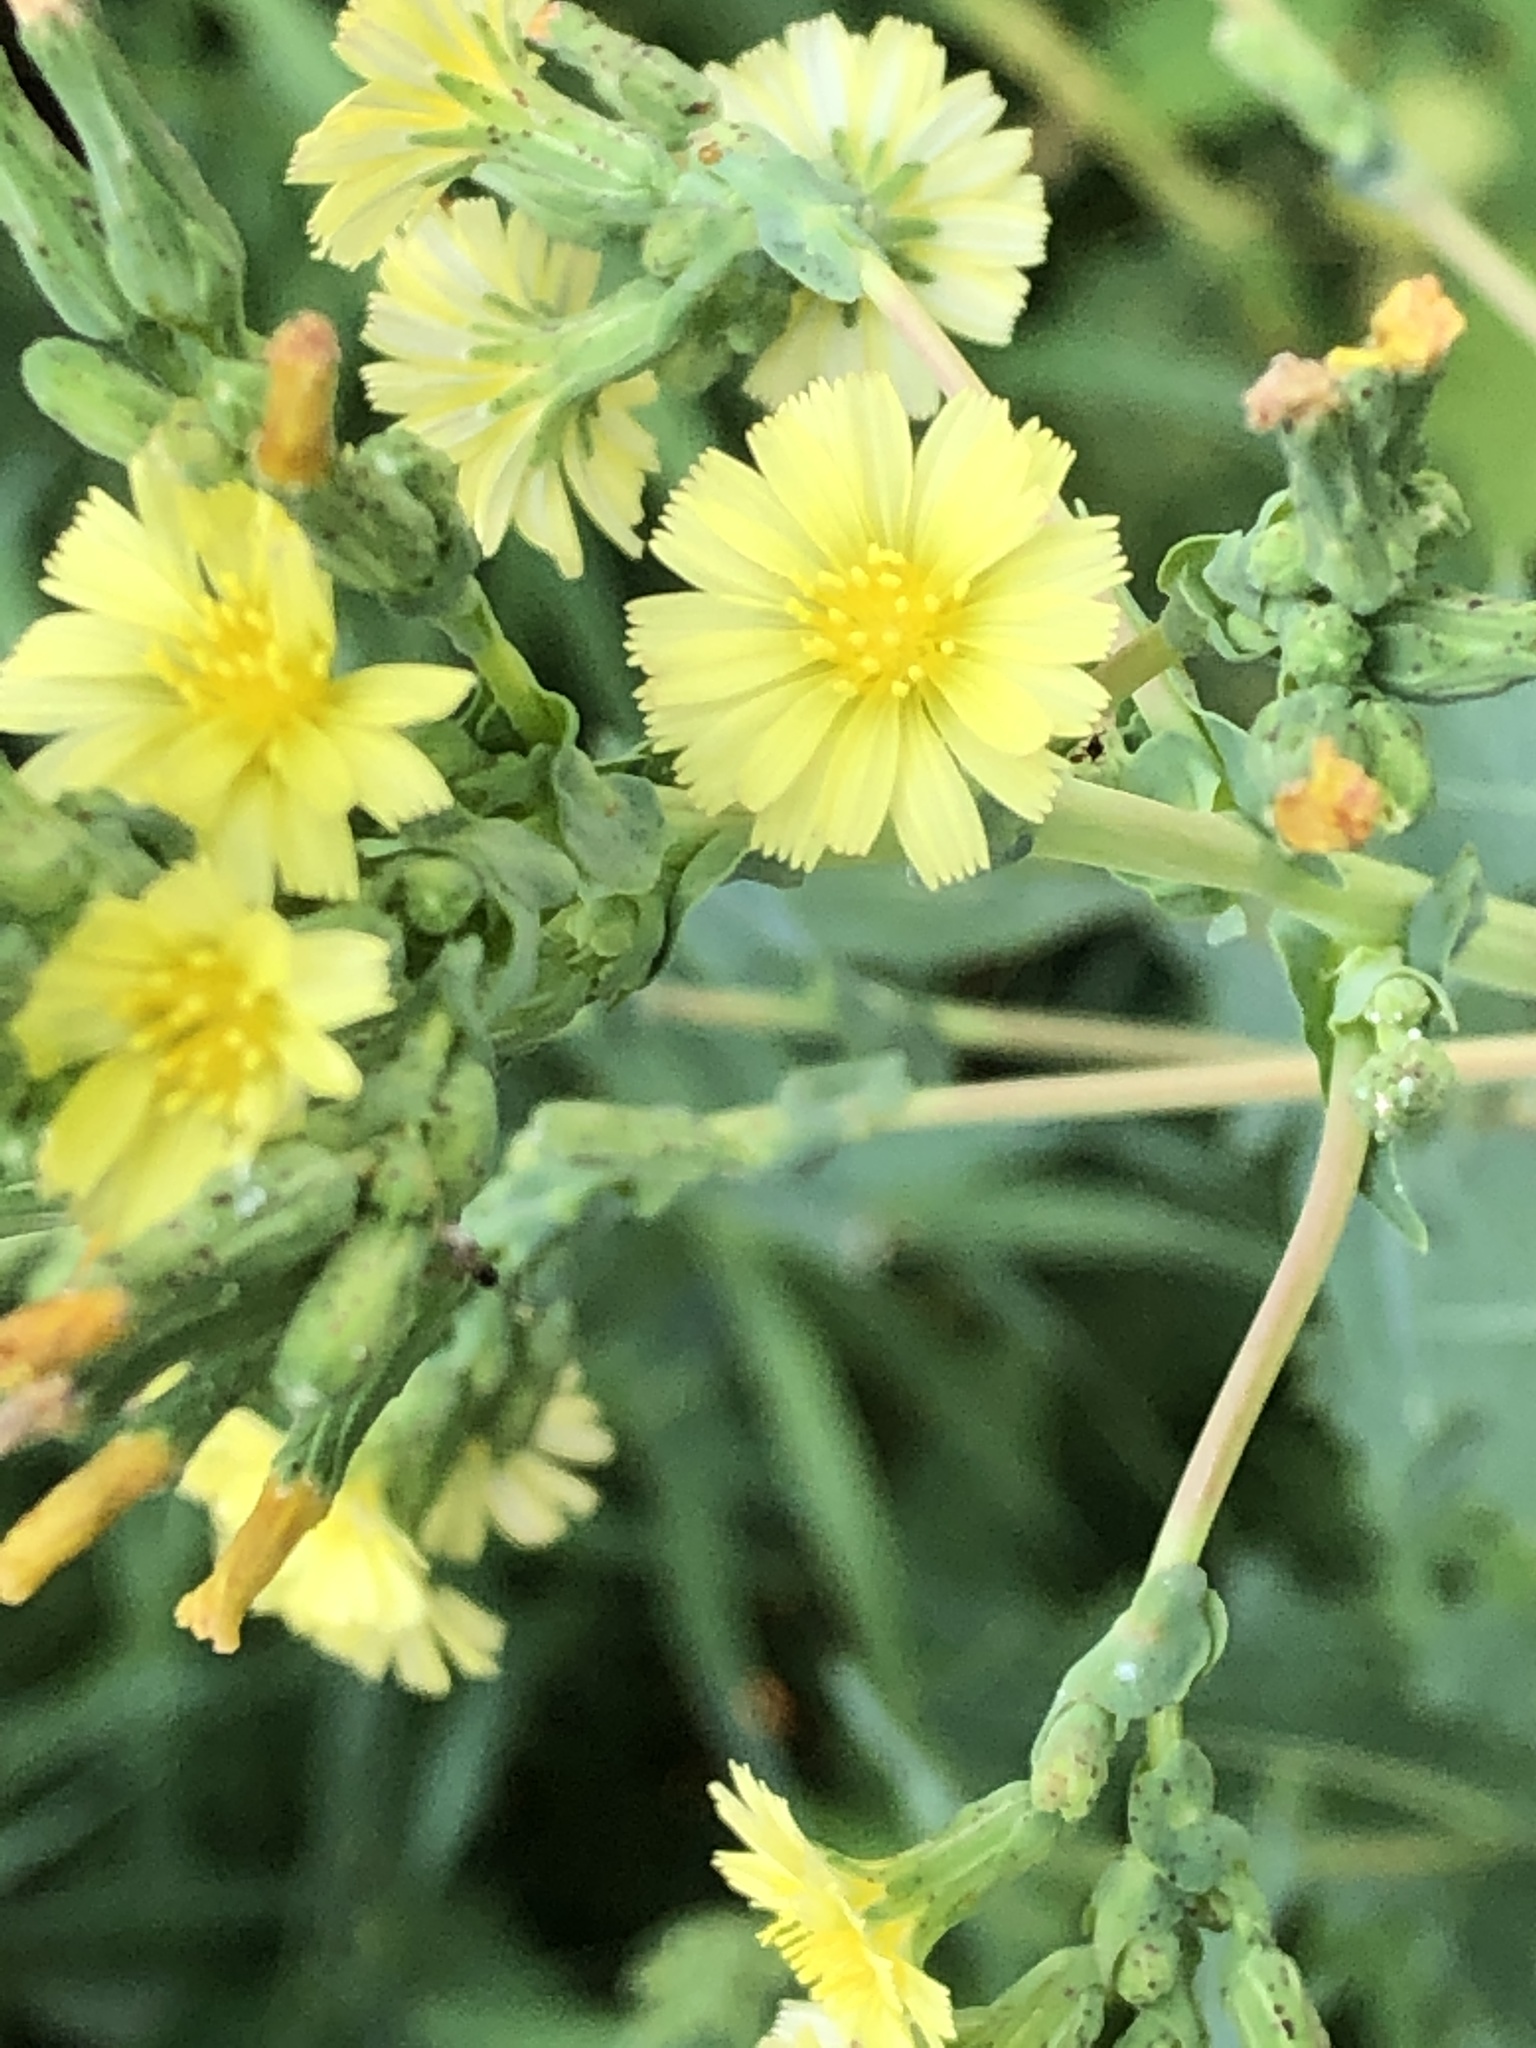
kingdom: Plantae
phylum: Tracheophyta
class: Magnoliopsida
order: Asterales
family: Asteraceae
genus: Lactuca
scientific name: Lactuca serriola
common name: Prickly lettuce
